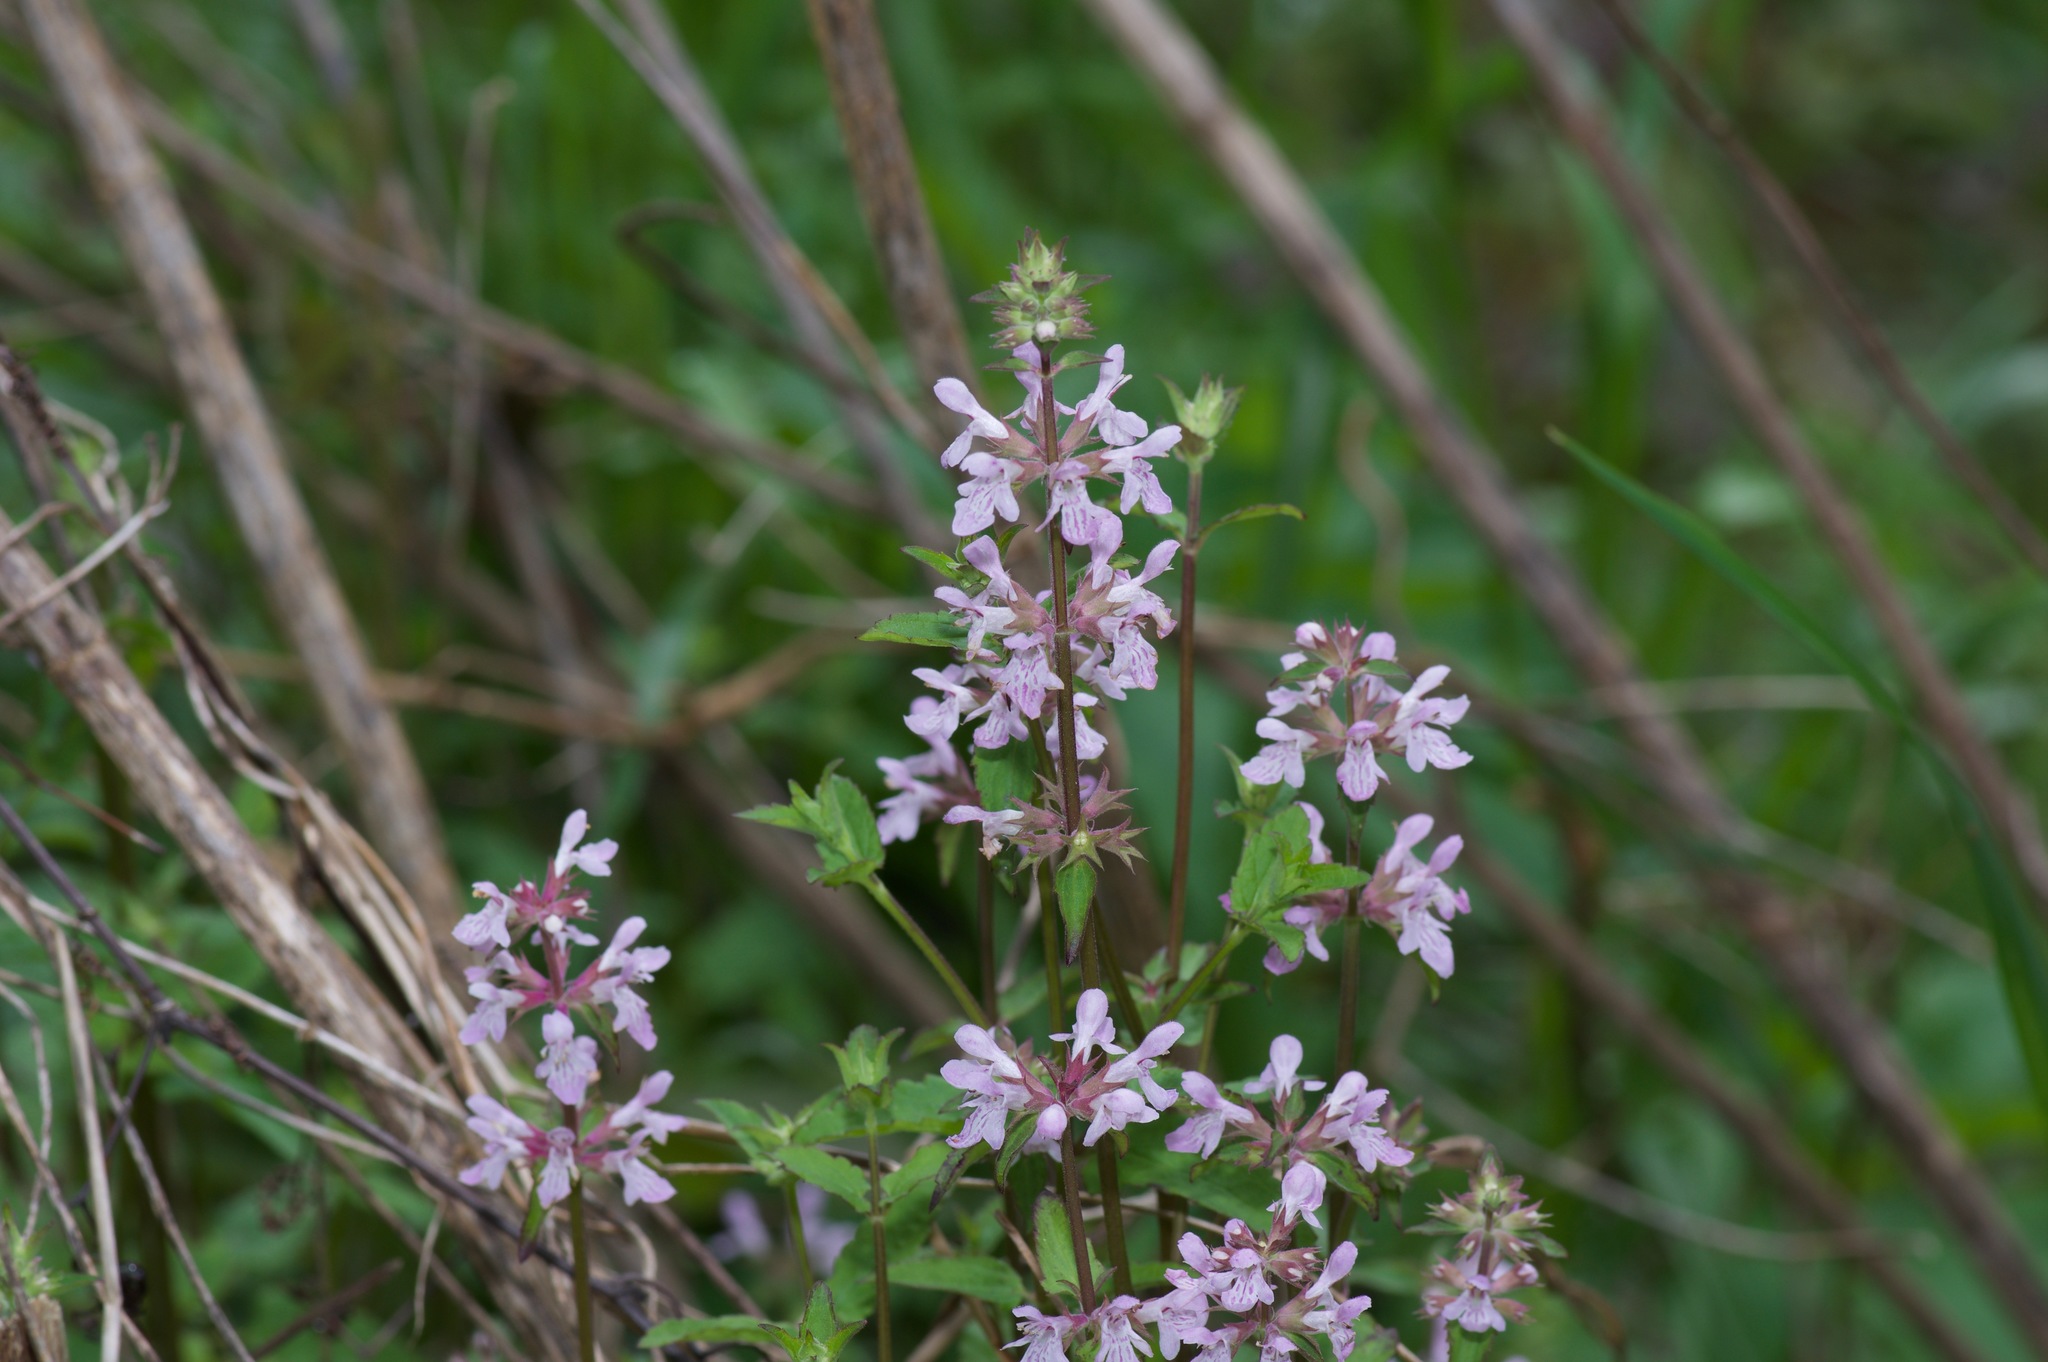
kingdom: Plantae
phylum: Tracheophyta
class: Magnoliopsida
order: Lamiales
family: Lamiaceae
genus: Stachys
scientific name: Stachys floridana
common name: Florida betony
